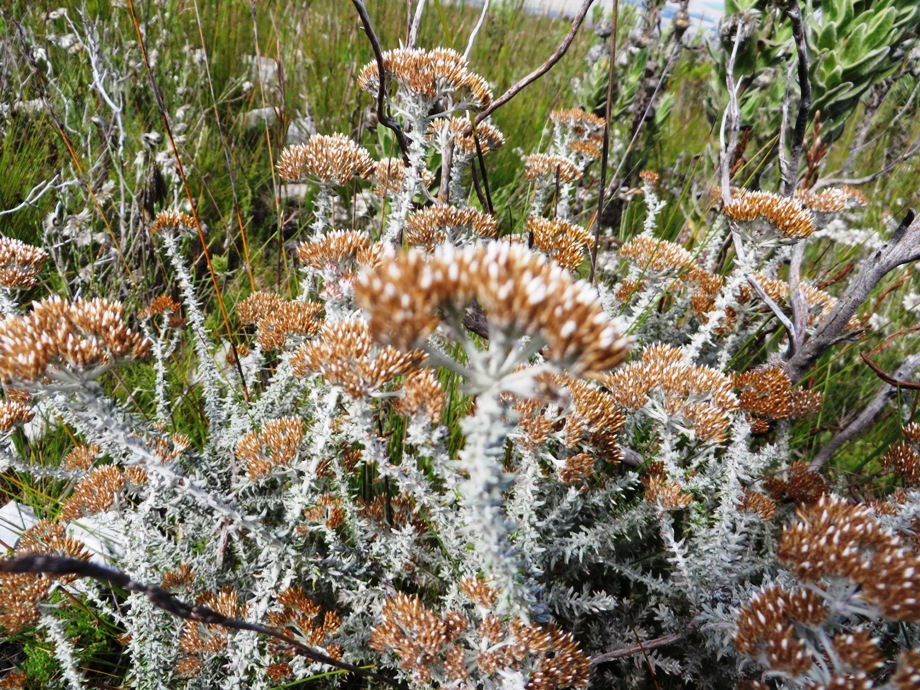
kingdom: Plantae
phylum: Tracheophyta
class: Magnoliopsida
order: Asterales
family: Asteraceae
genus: Metalasia
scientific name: Metalasia densa
